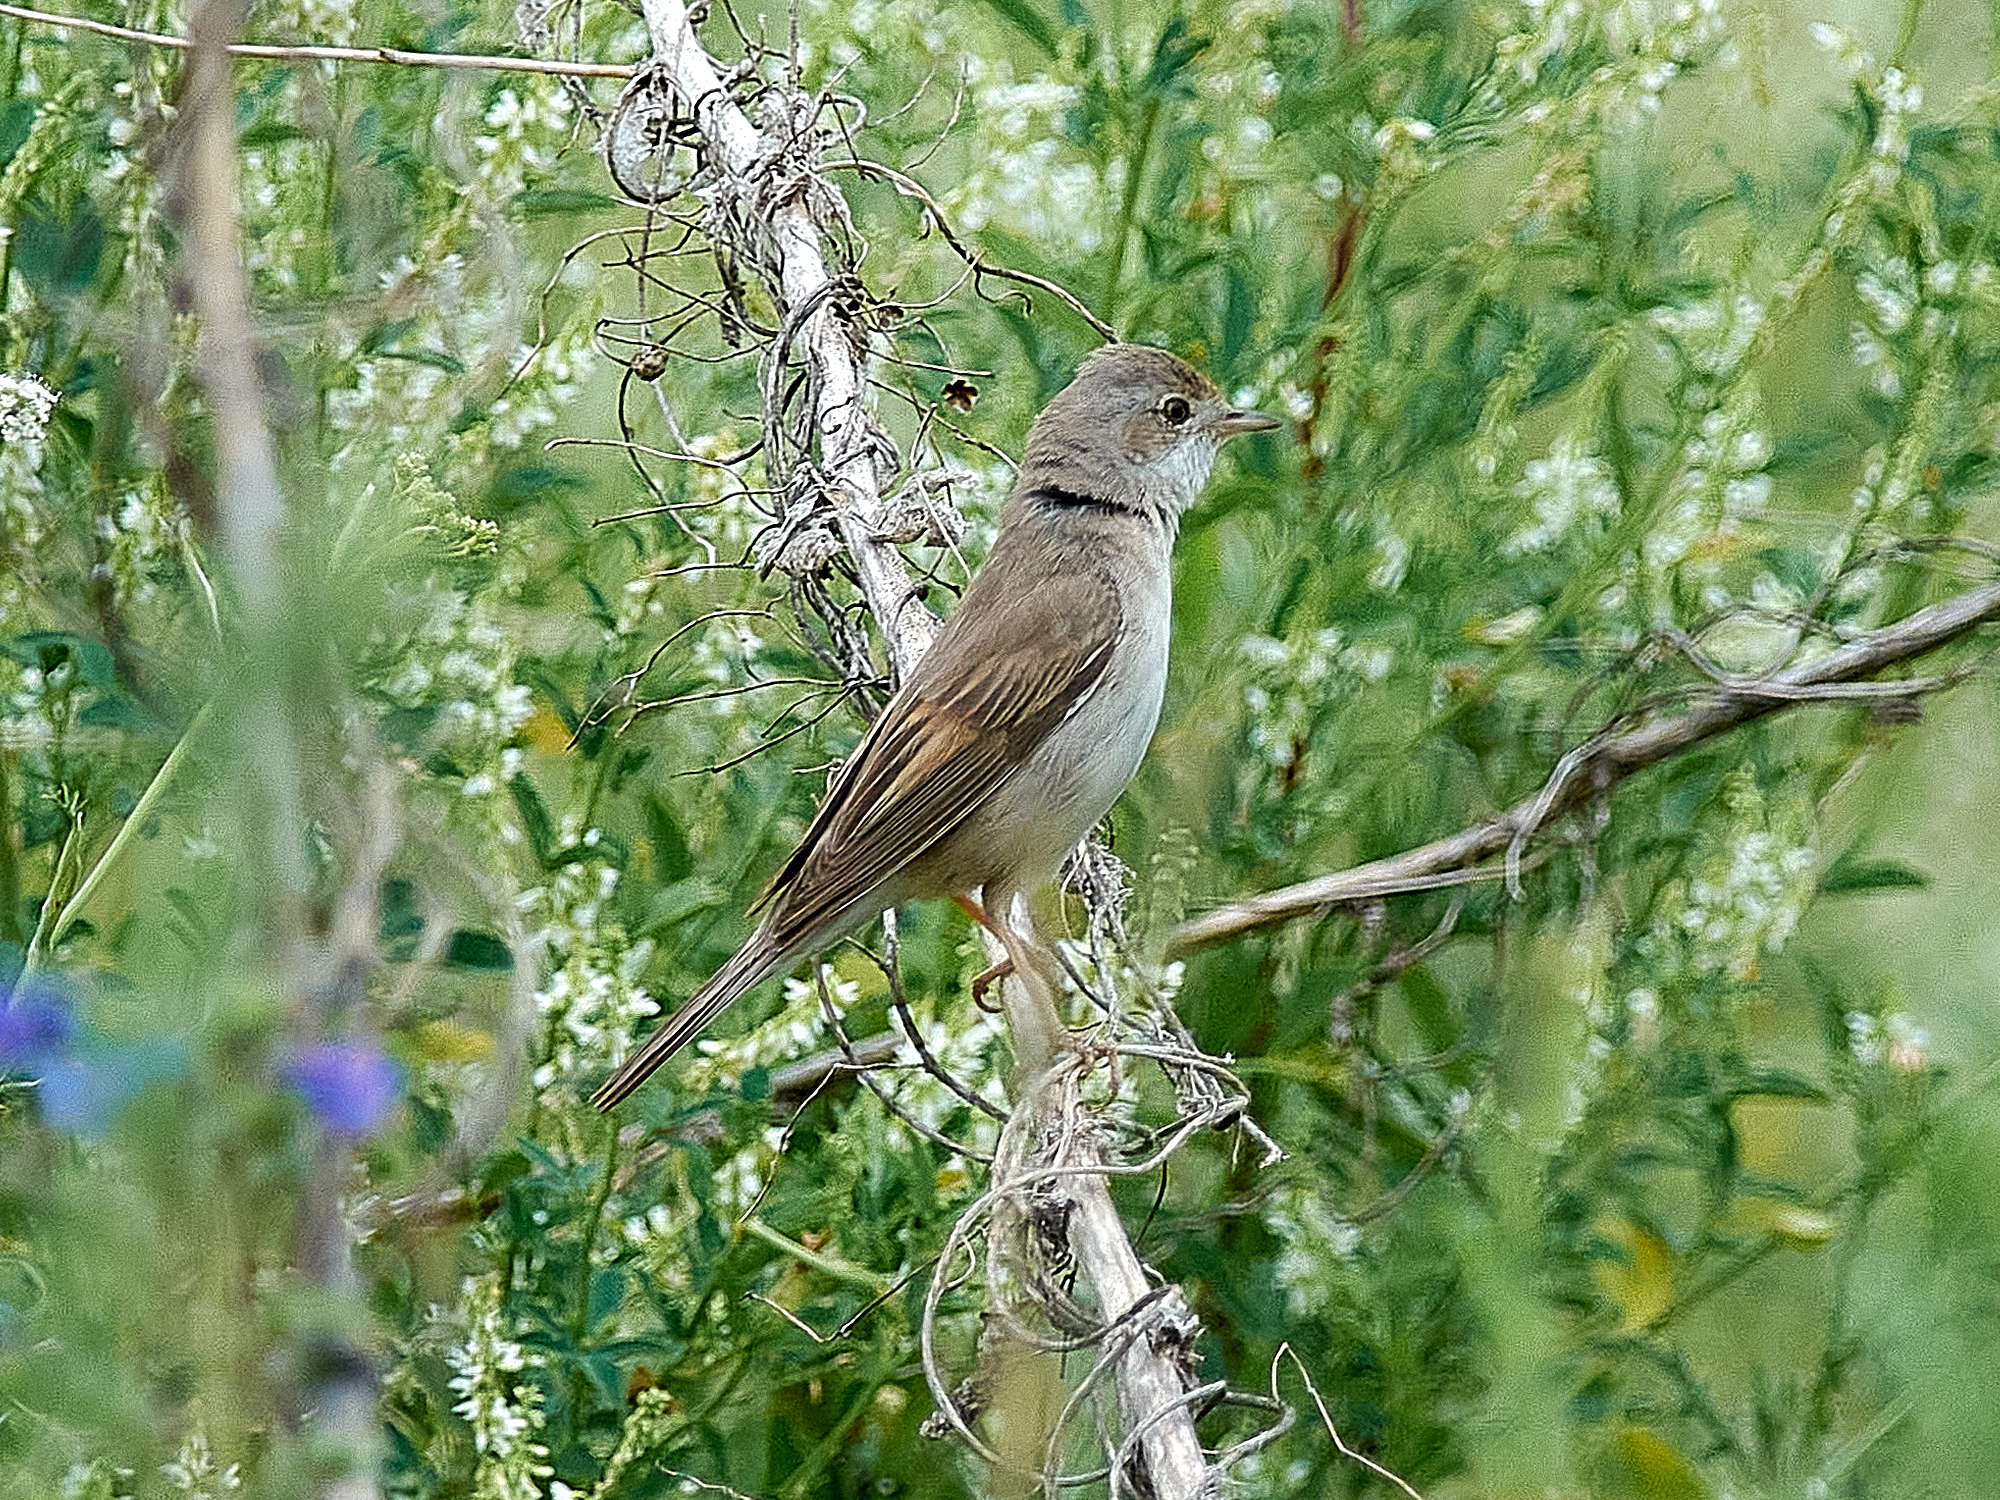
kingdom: Animalia
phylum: Chordata
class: Aves
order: Passeriformes
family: Sylviidae
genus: Sylvia
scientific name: Sylvia communis
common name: Common whitethroat
